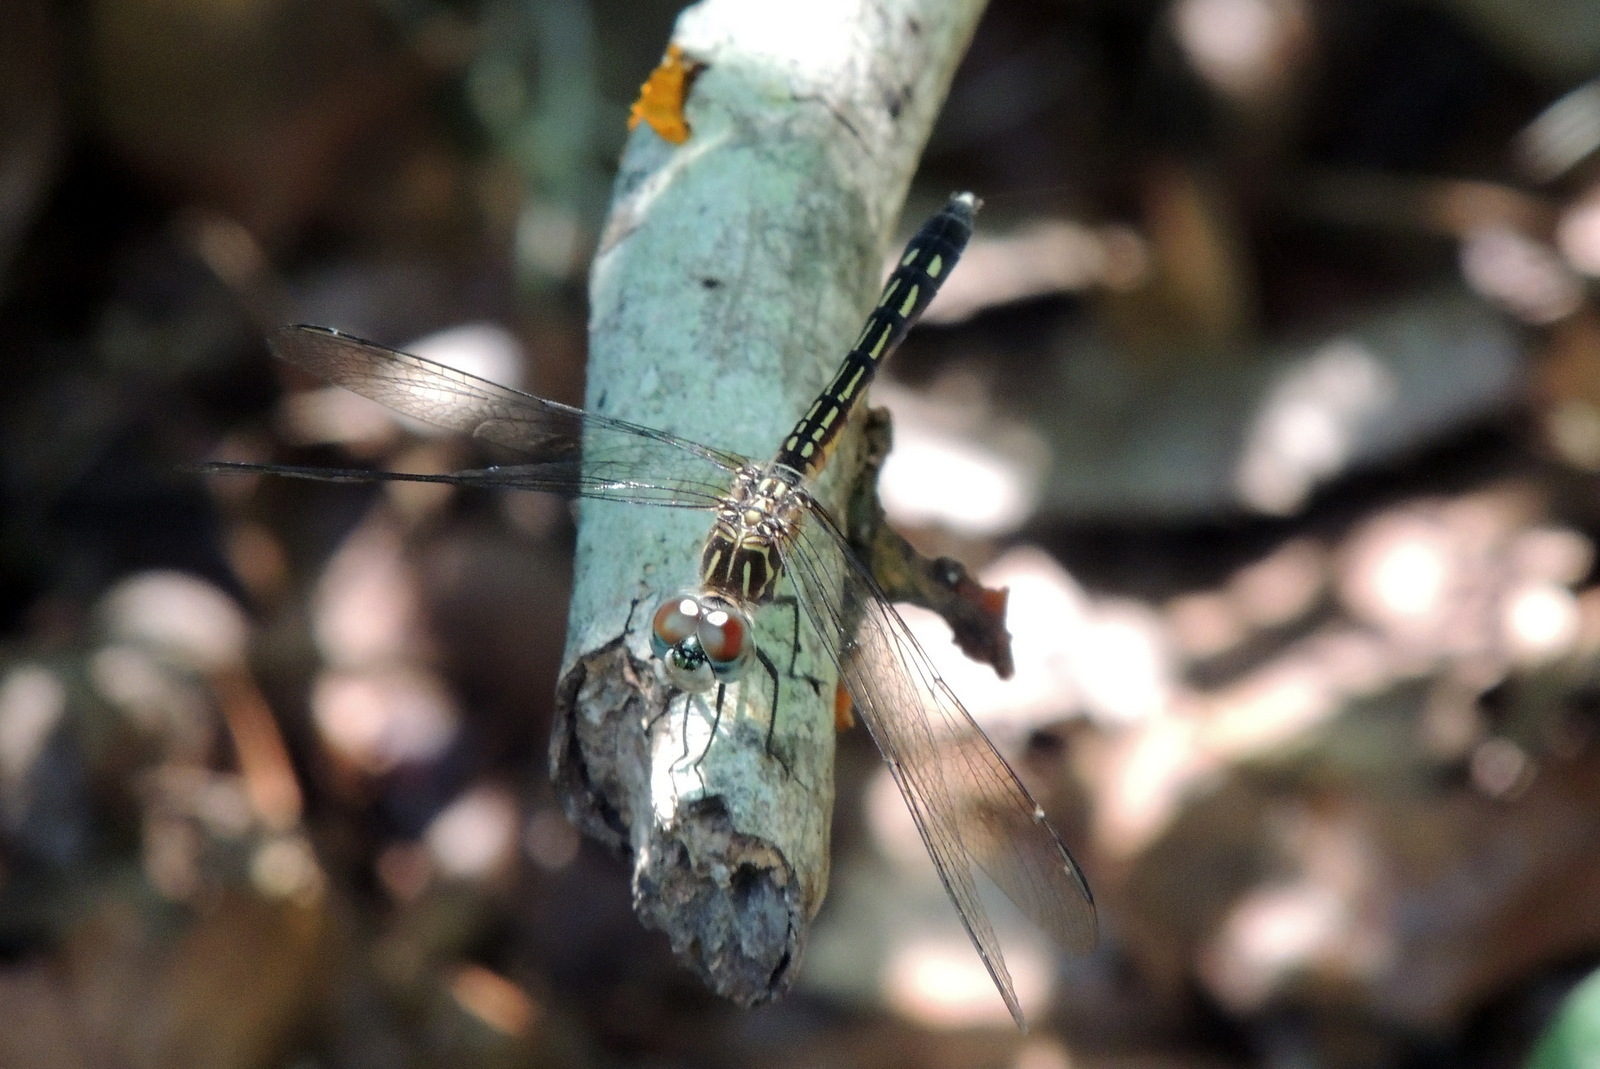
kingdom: Animalia
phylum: Arthropoda
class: Insecta
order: Odonata
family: Libellulidae
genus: Pachydiplax
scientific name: Pachydiplax longipennis
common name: Blue dasher
